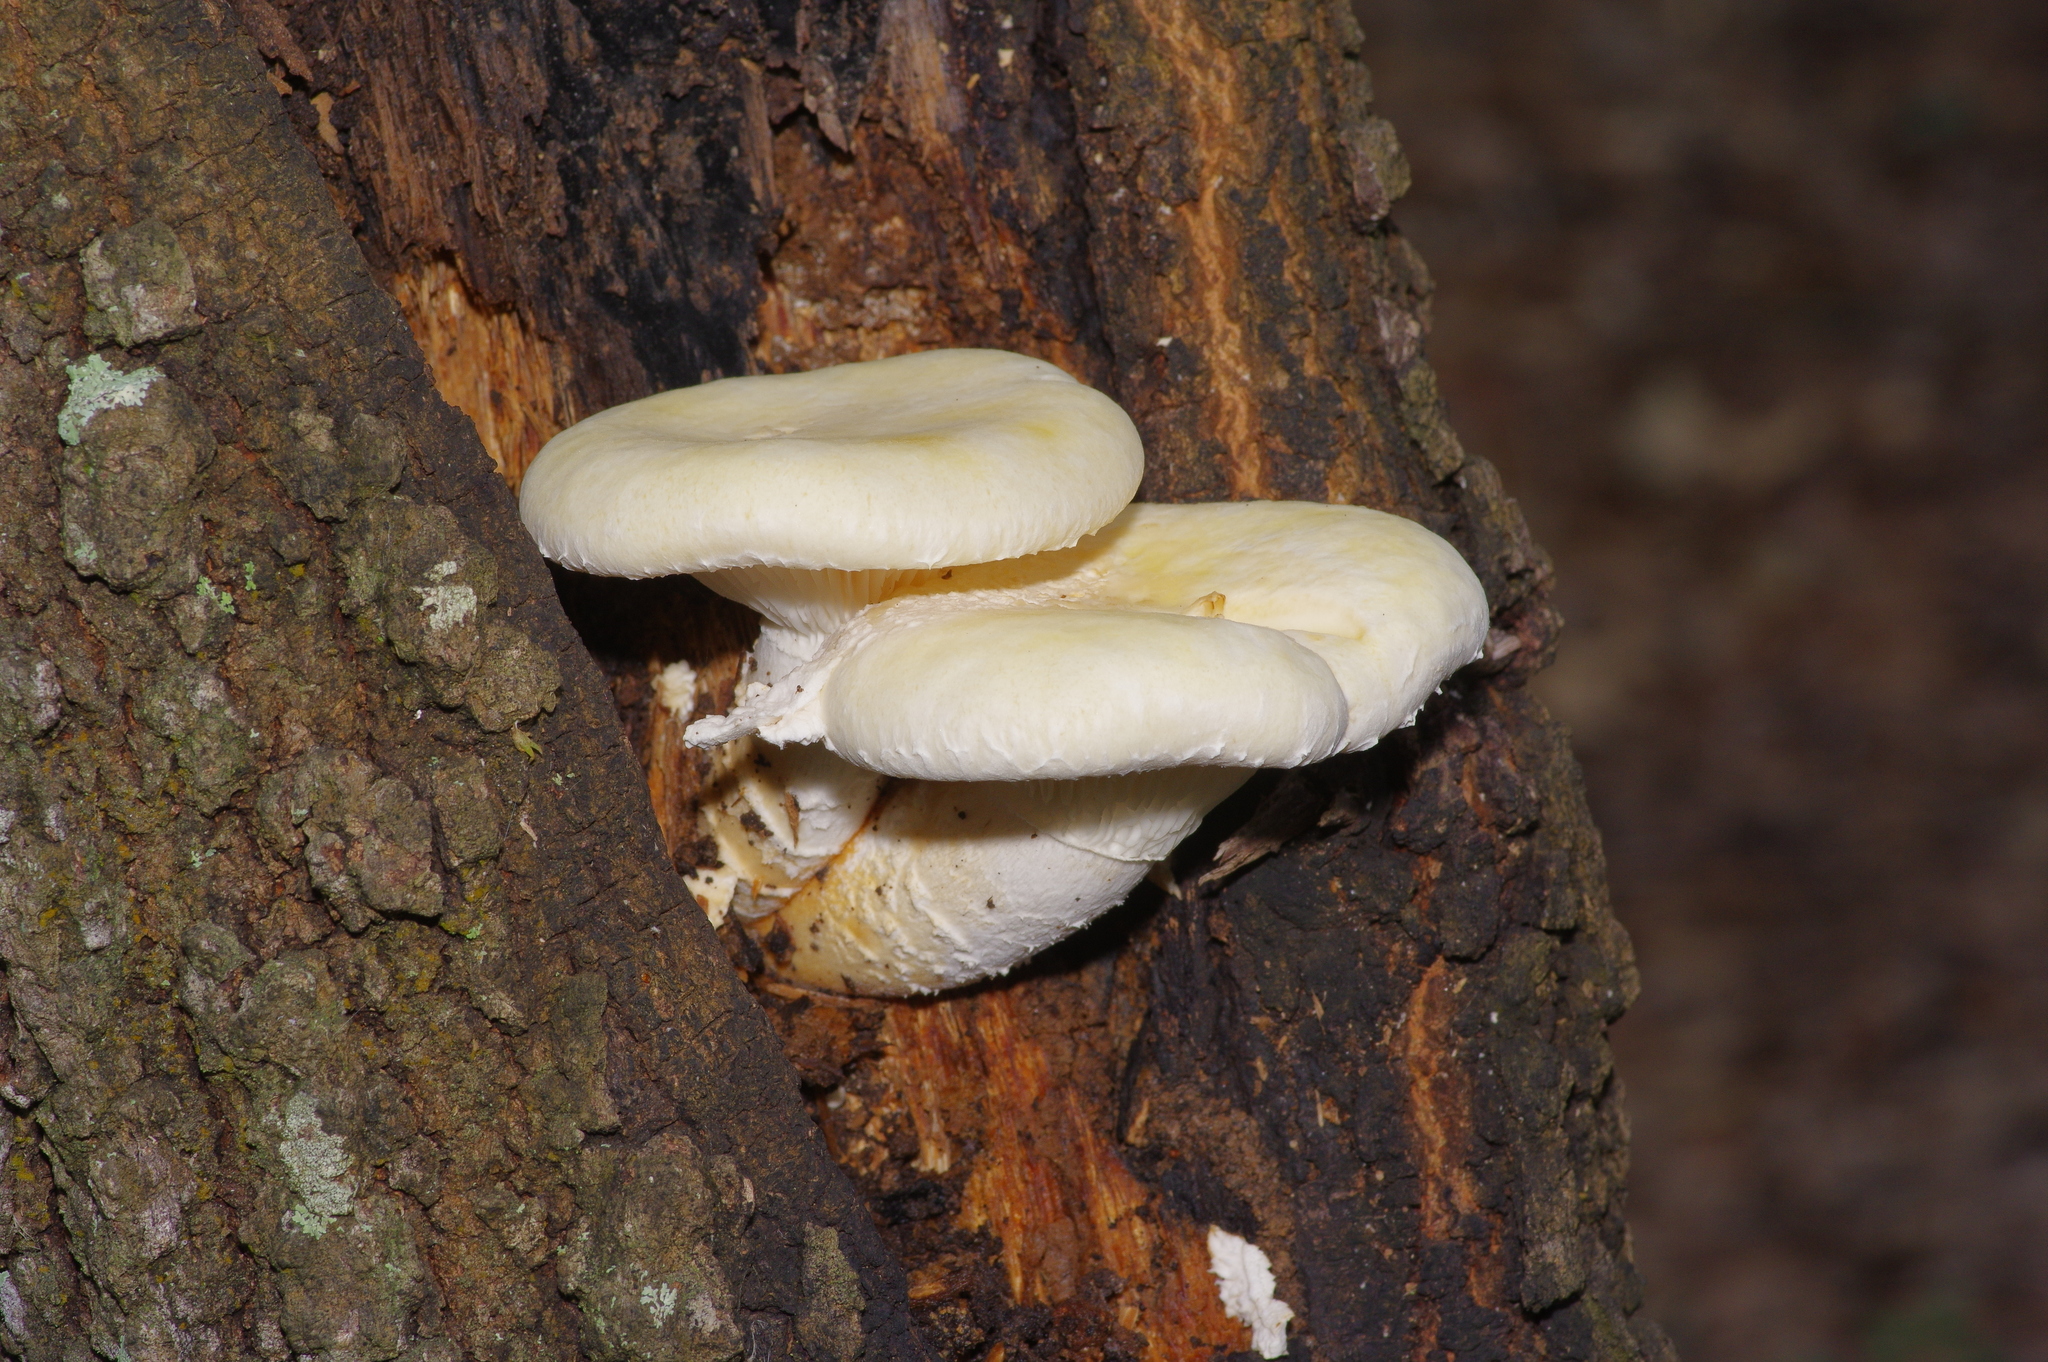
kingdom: Fungi
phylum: Basidiomycota
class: Agaricomycetes
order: Polyporales
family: Polyporaceae
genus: Lentinus
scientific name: Lentinus levis
